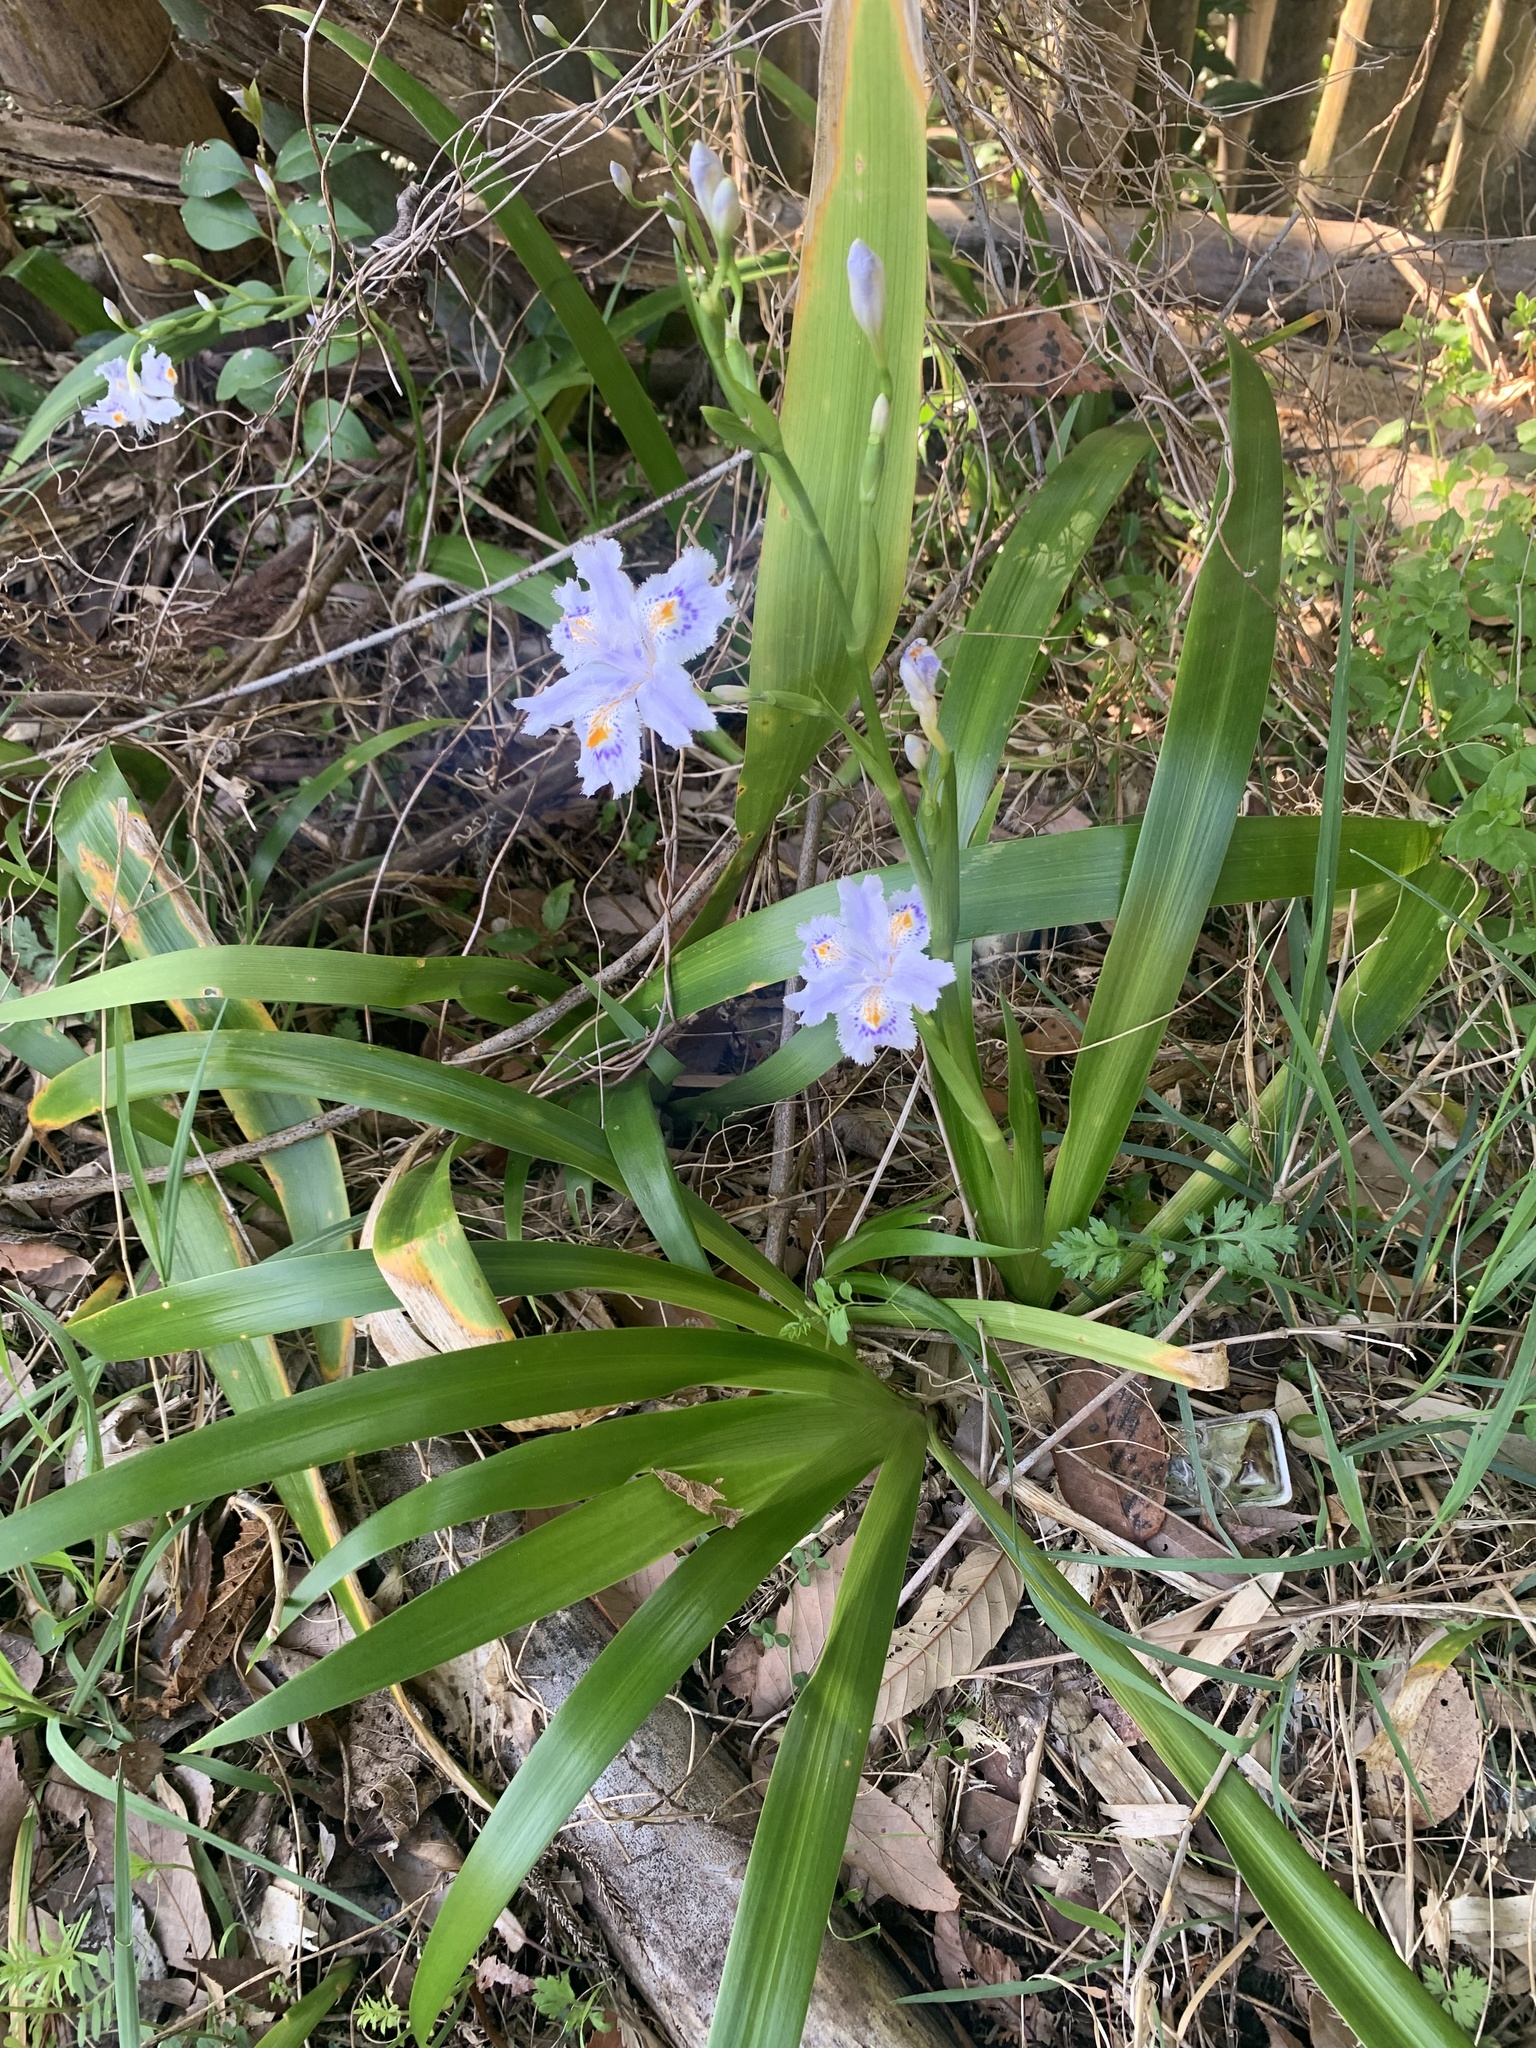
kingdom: Plantae
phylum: Tracheophyta
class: Liliopsida
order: Asparagales
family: Iridaceae
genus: Iris
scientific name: Iris japonica
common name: Butterfly-flower
